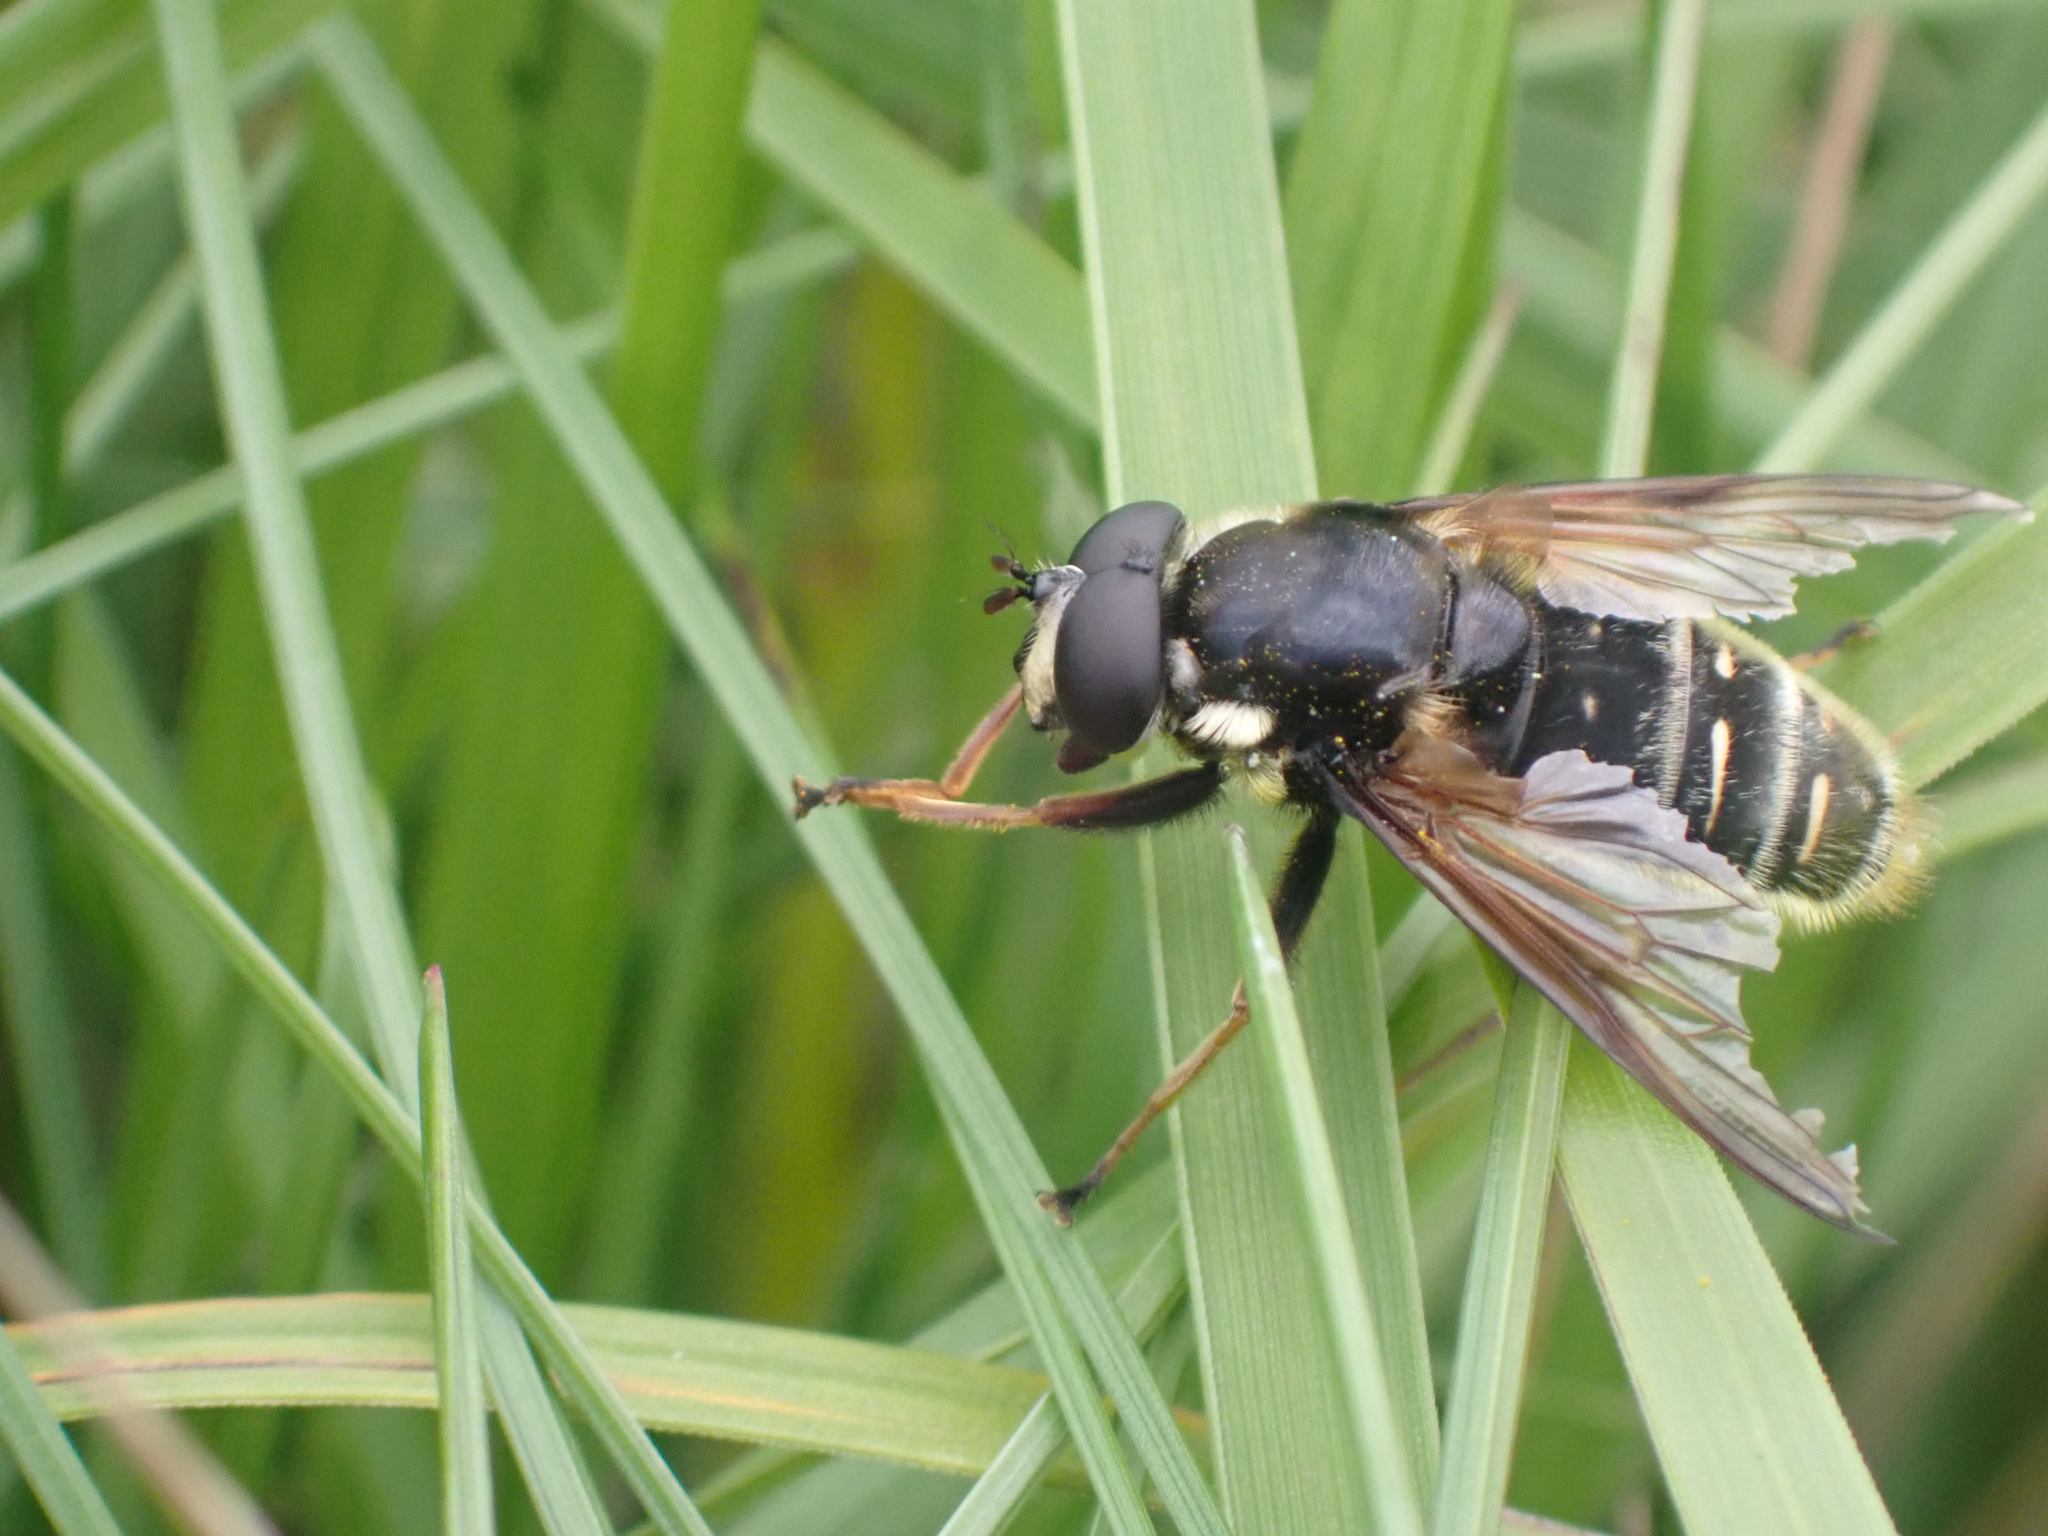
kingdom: Animalia
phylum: Arthropoda
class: Insecta
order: Diptera
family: Syrphidae
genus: Sericomyia
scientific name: Sericomyia militaris
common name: Narrow-banded pond fly
